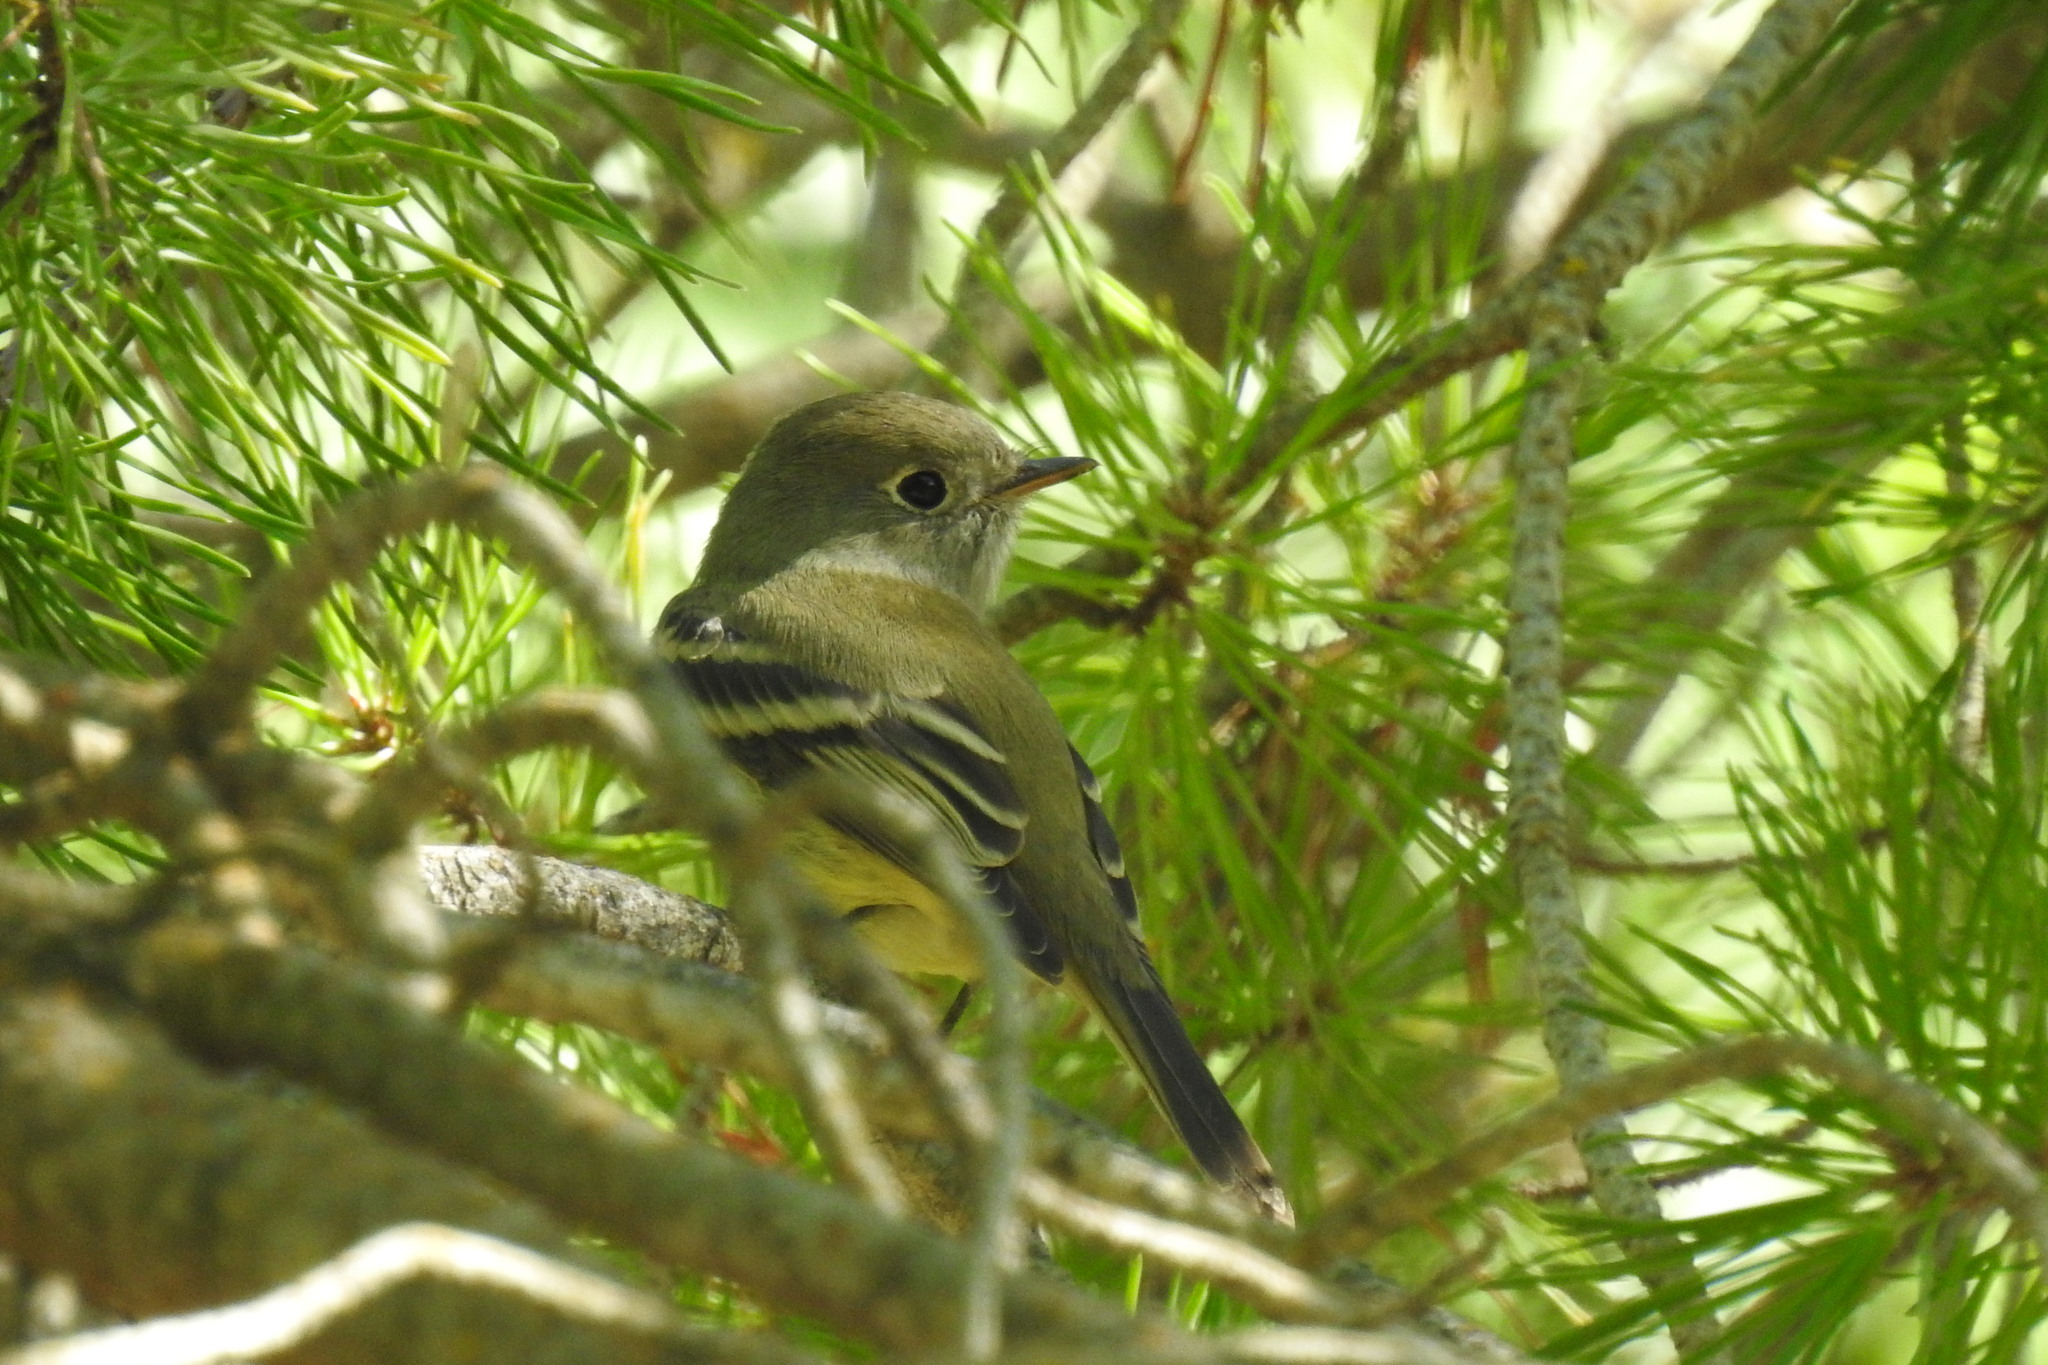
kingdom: Animalia
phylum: Chordata
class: Aves
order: Passeriformes
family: Tyrannidae
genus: Empidonax
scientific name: Empidonax hammondii
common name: Hammond's flycatcher
